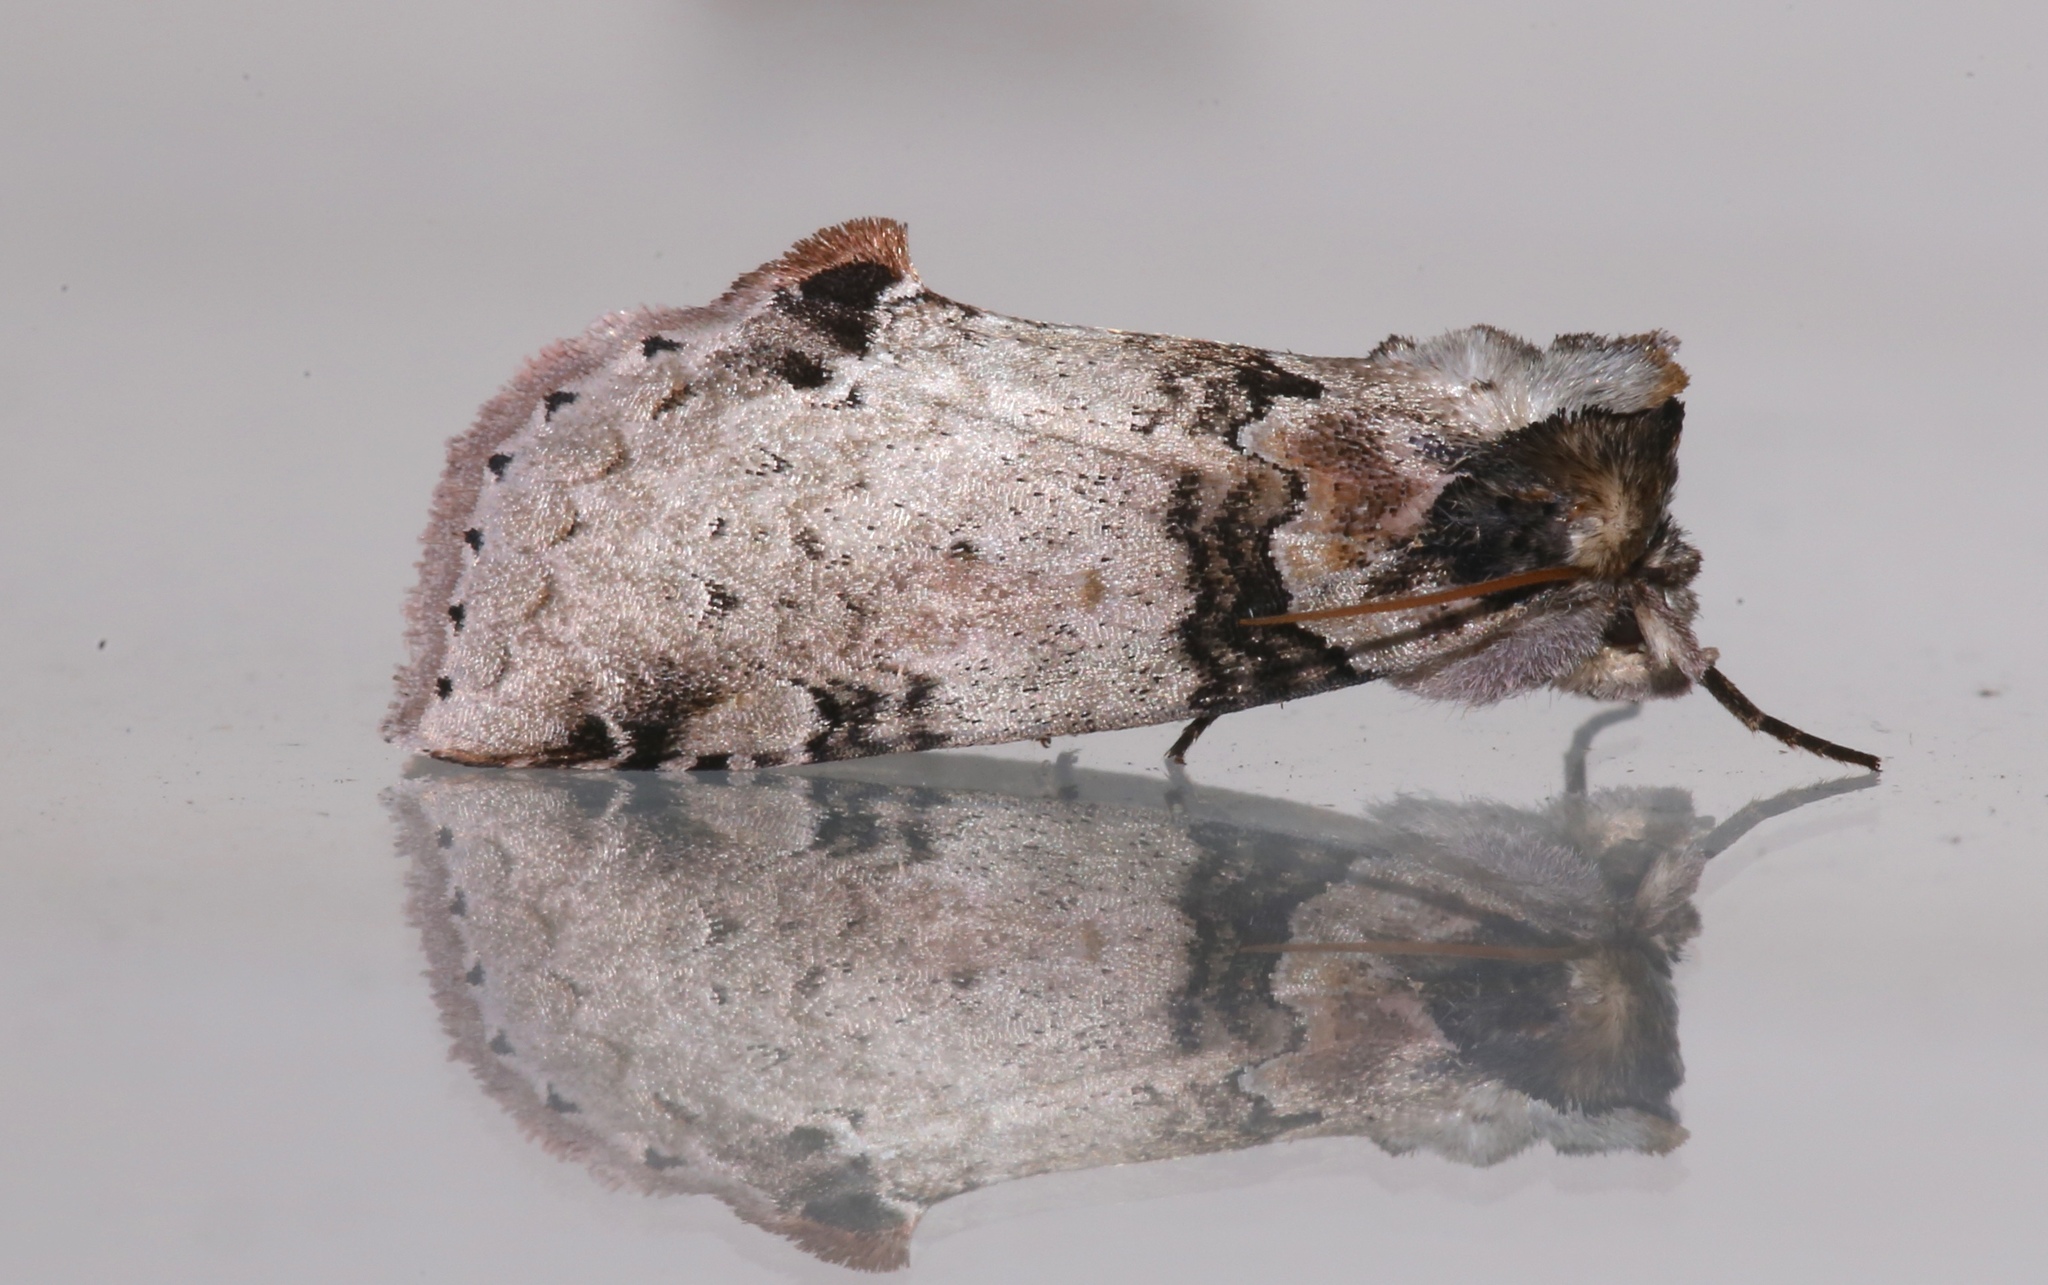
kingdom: Animalia
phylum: Arthropoda
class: Insecta
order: Lepidoptera
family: Drepanidae
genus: Pseudothyatira
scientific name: Pseudothyatira cymatophoroides
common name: Tufted thyatirid moth
